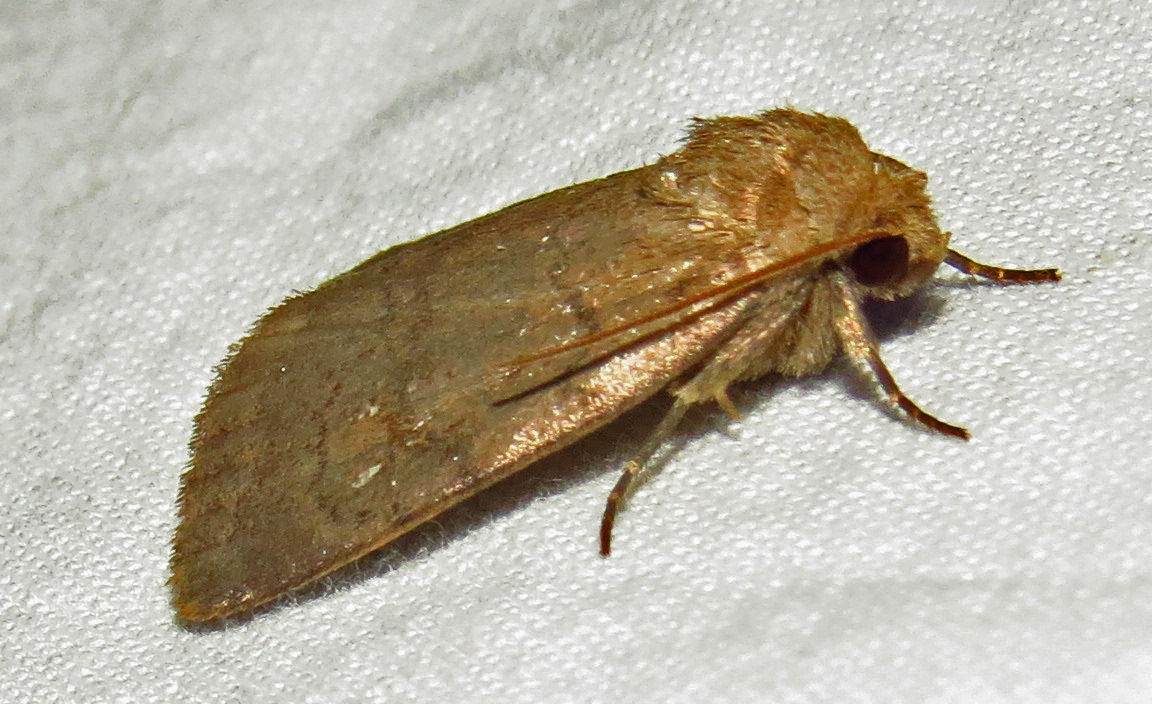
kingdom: Animalia
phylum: Arthropoda
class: Insecta
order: Lepidoptera
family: Noctuidae
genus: Athetis
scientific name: Athetis tarda
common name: Slowpoke moth
